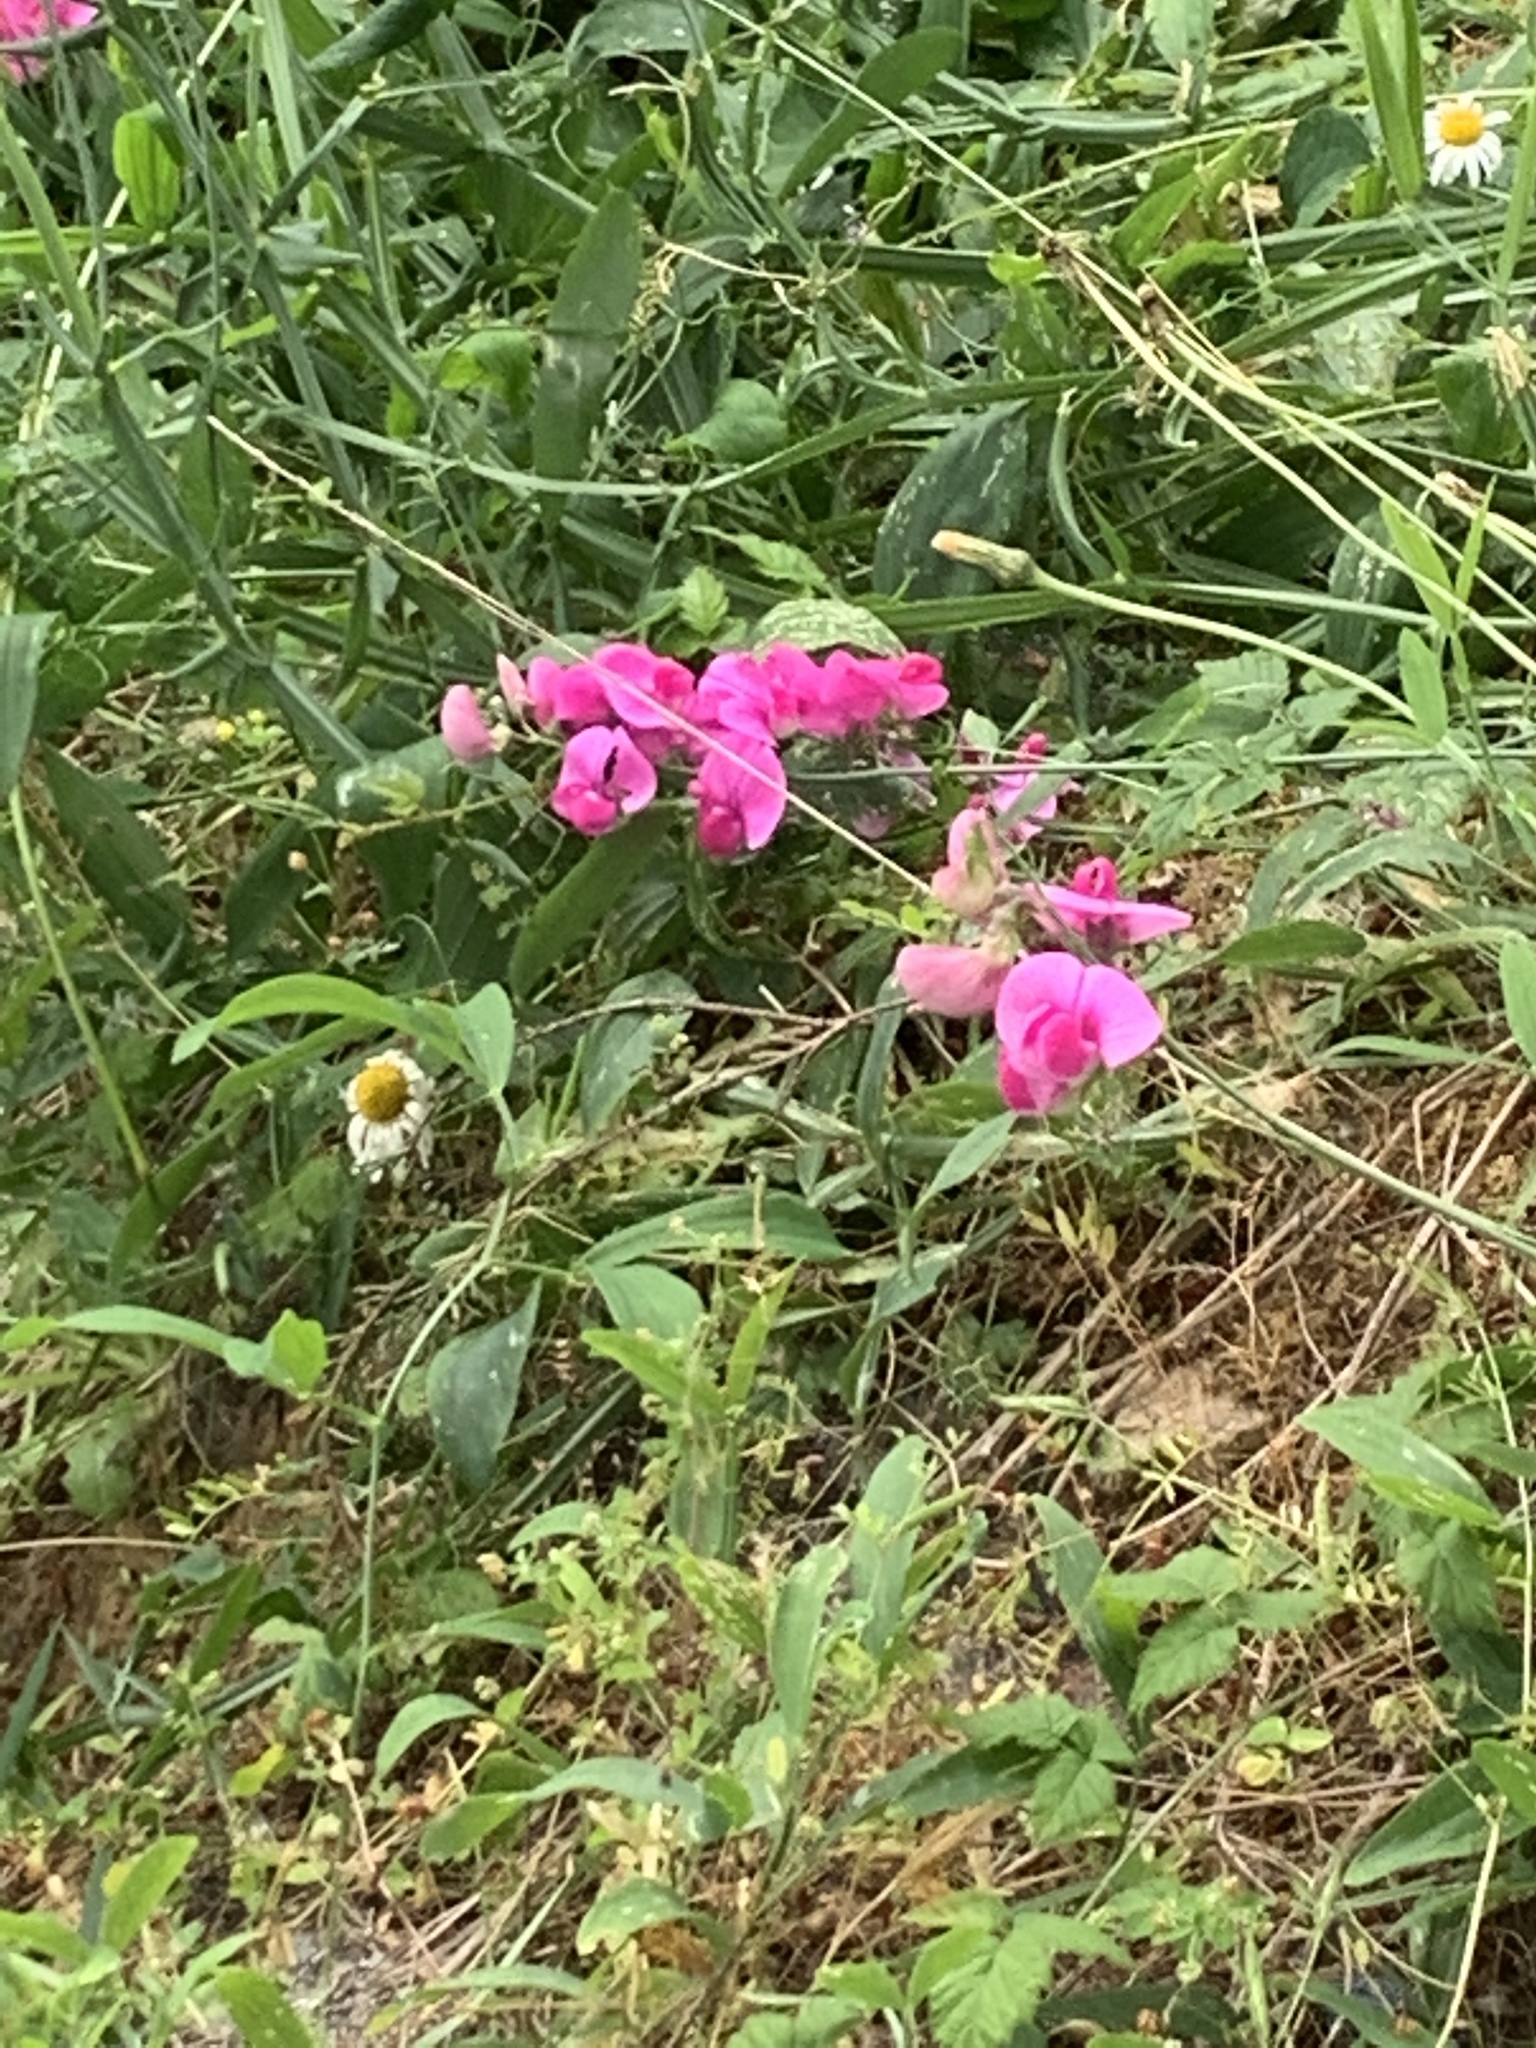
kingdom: Plantae
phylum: Tracheophyta
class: Magnoliopsida
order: Fabales
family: Fabaceae
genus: Lathyrus
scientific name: Lathyrus latifolius
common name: Perennial pea
